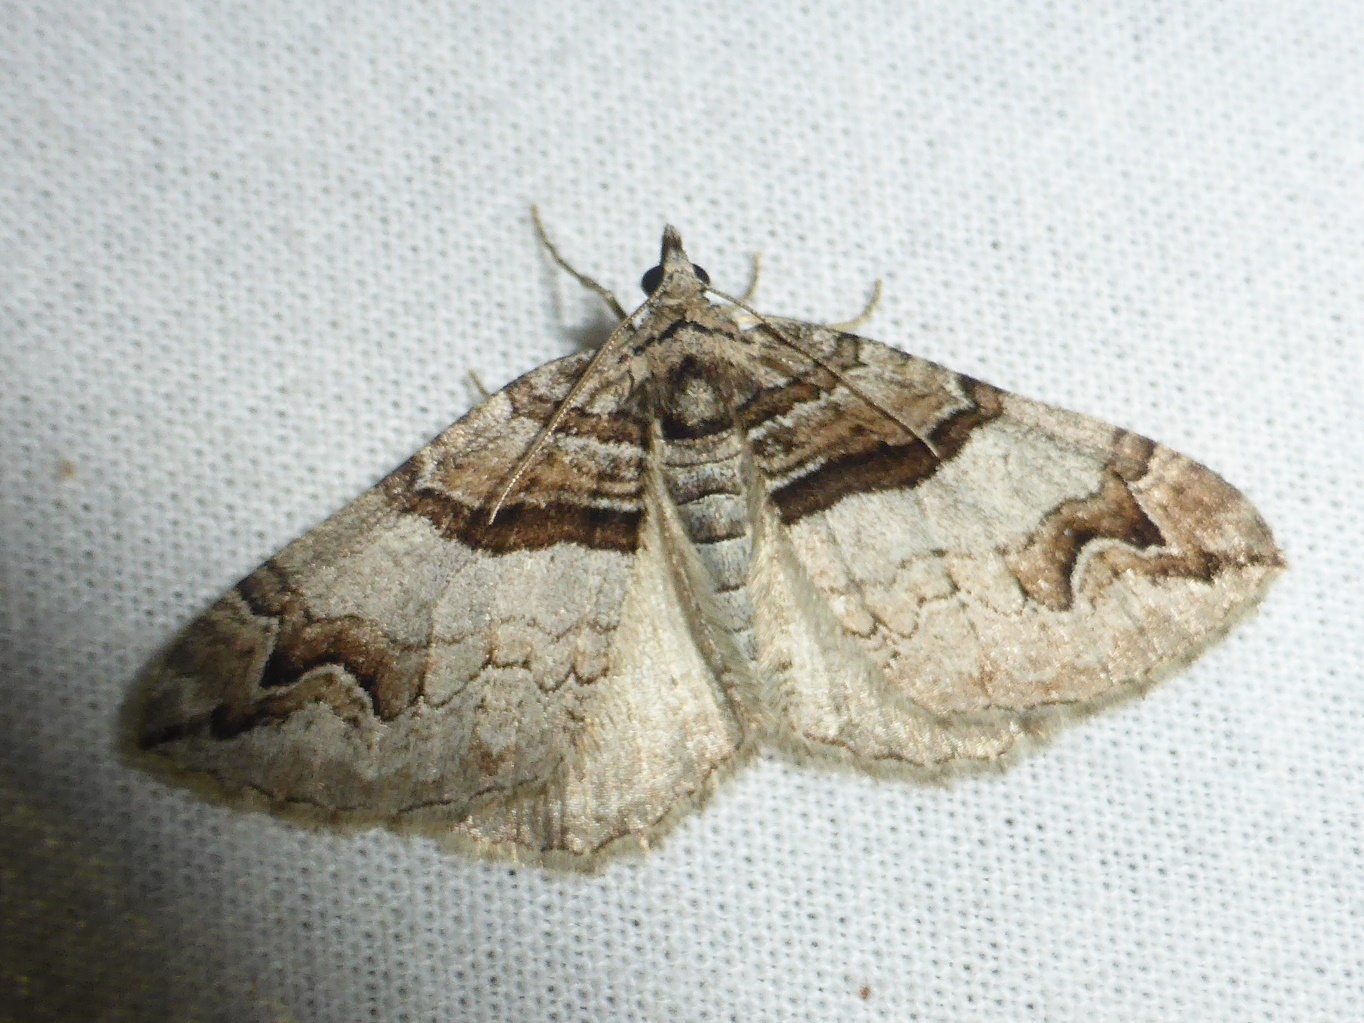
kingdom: Animalia
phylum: Arthropoda
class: Insecta
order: Lepidoptera
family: Geometridae
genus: Pareulype
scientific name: Pareulype berberata
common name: Barberry carpet
